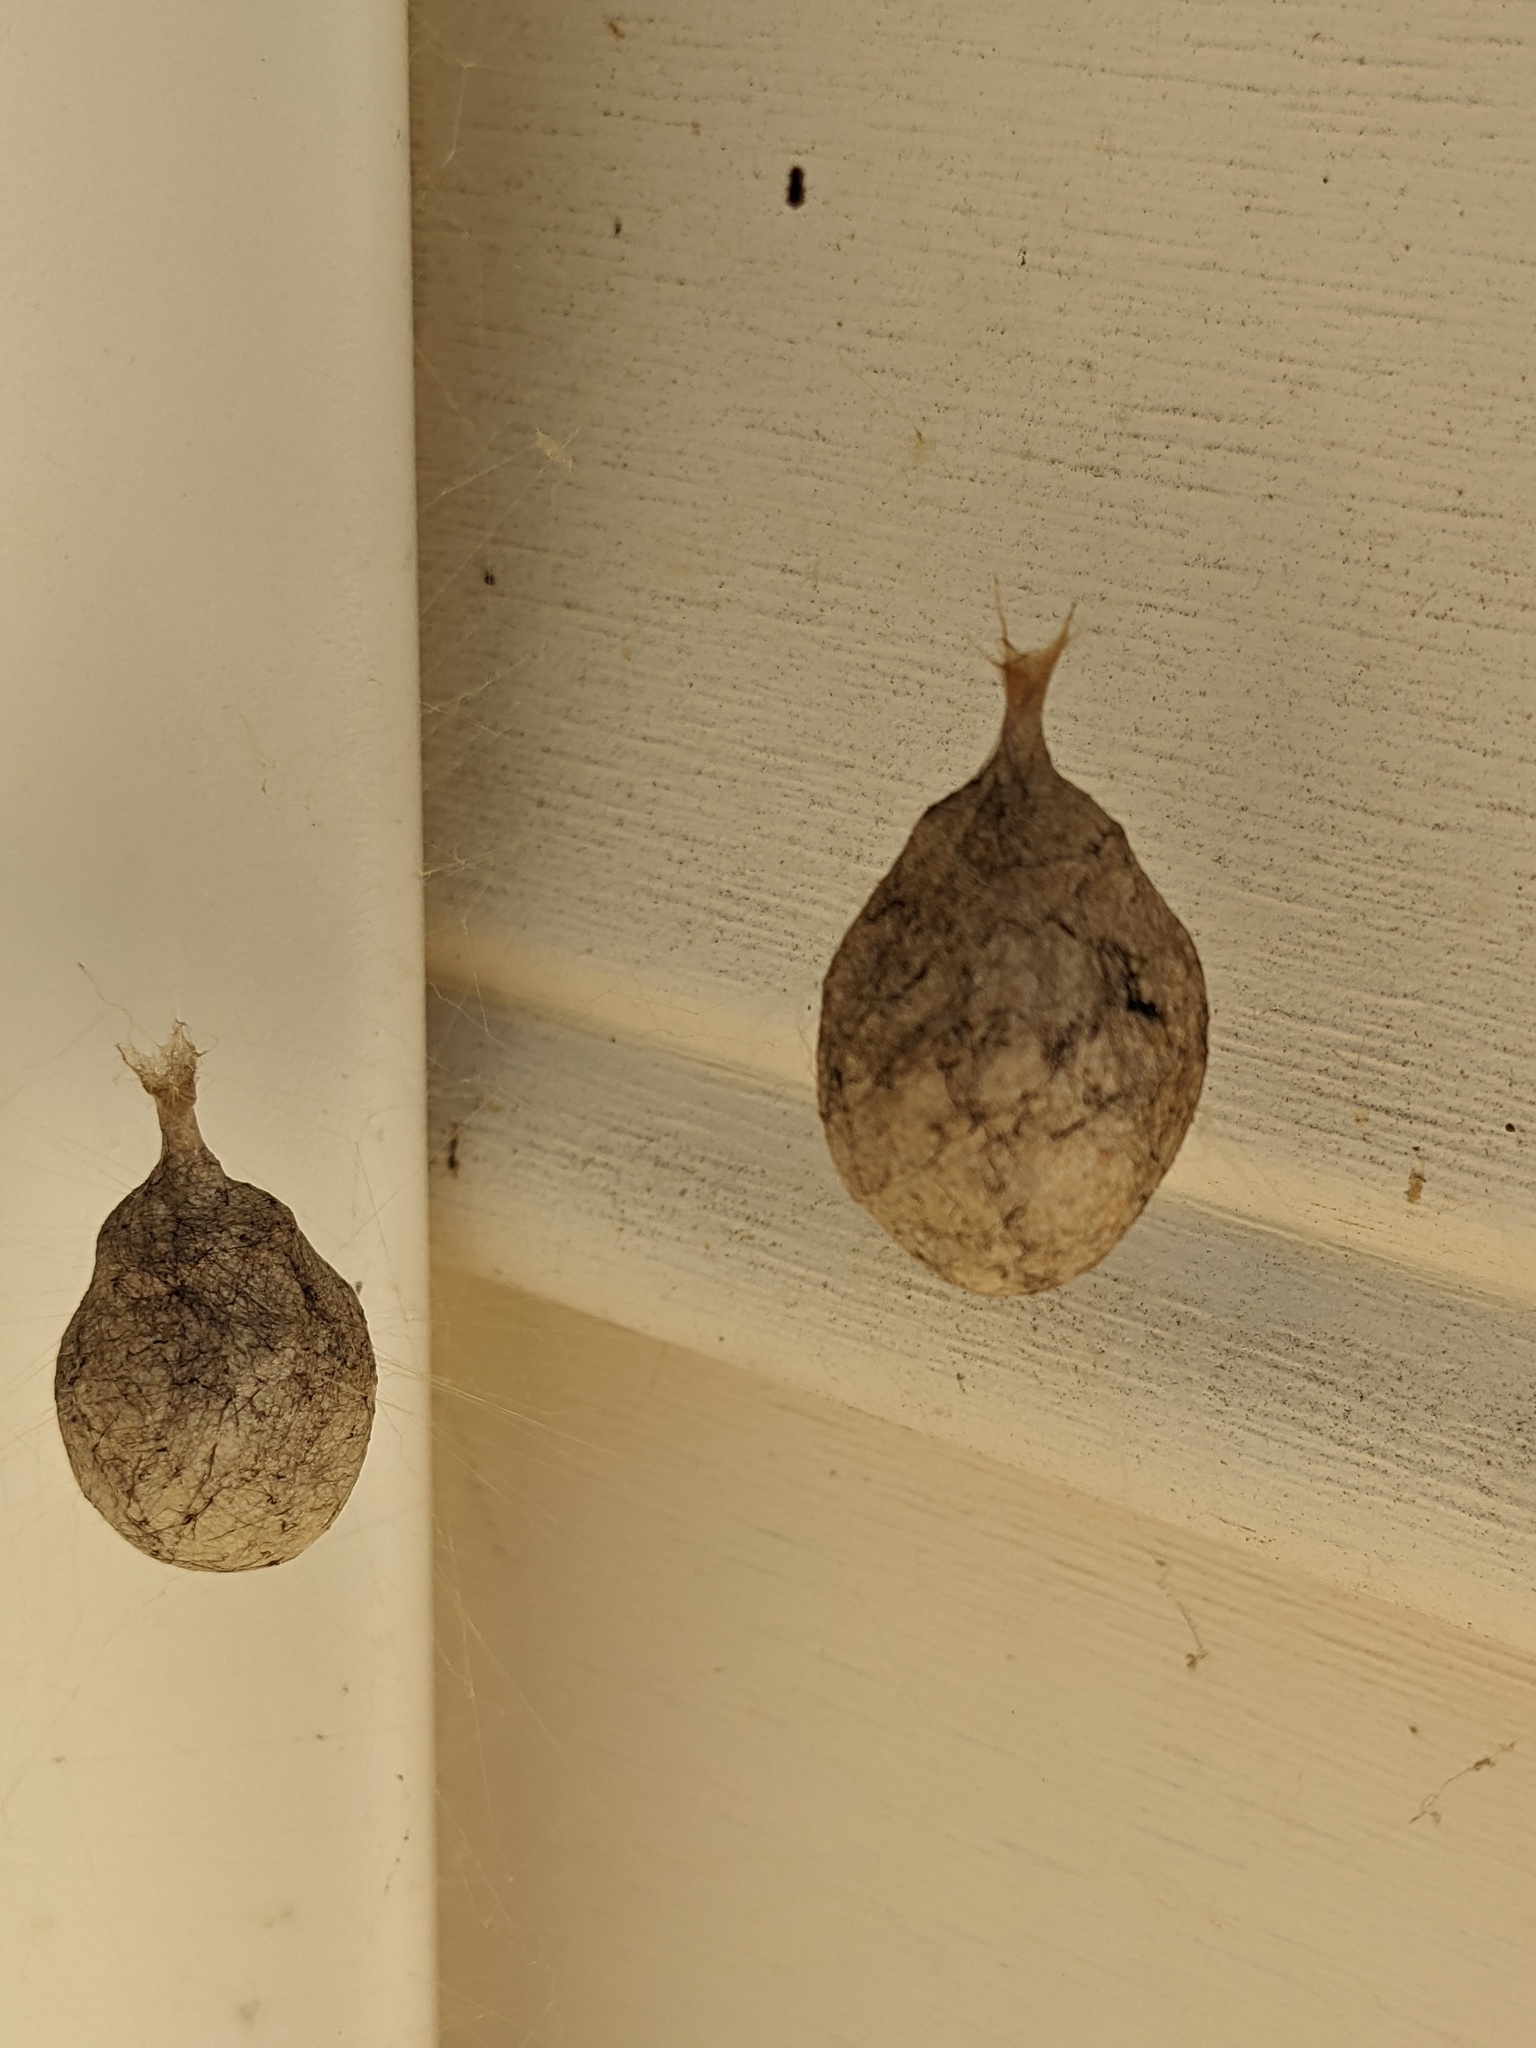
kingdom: Animalia
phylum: Arthropoda
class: Arachnida
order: Araneae
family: Araneidae
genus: Argiope
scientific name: Argiope aurantia
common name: Orb weavers
